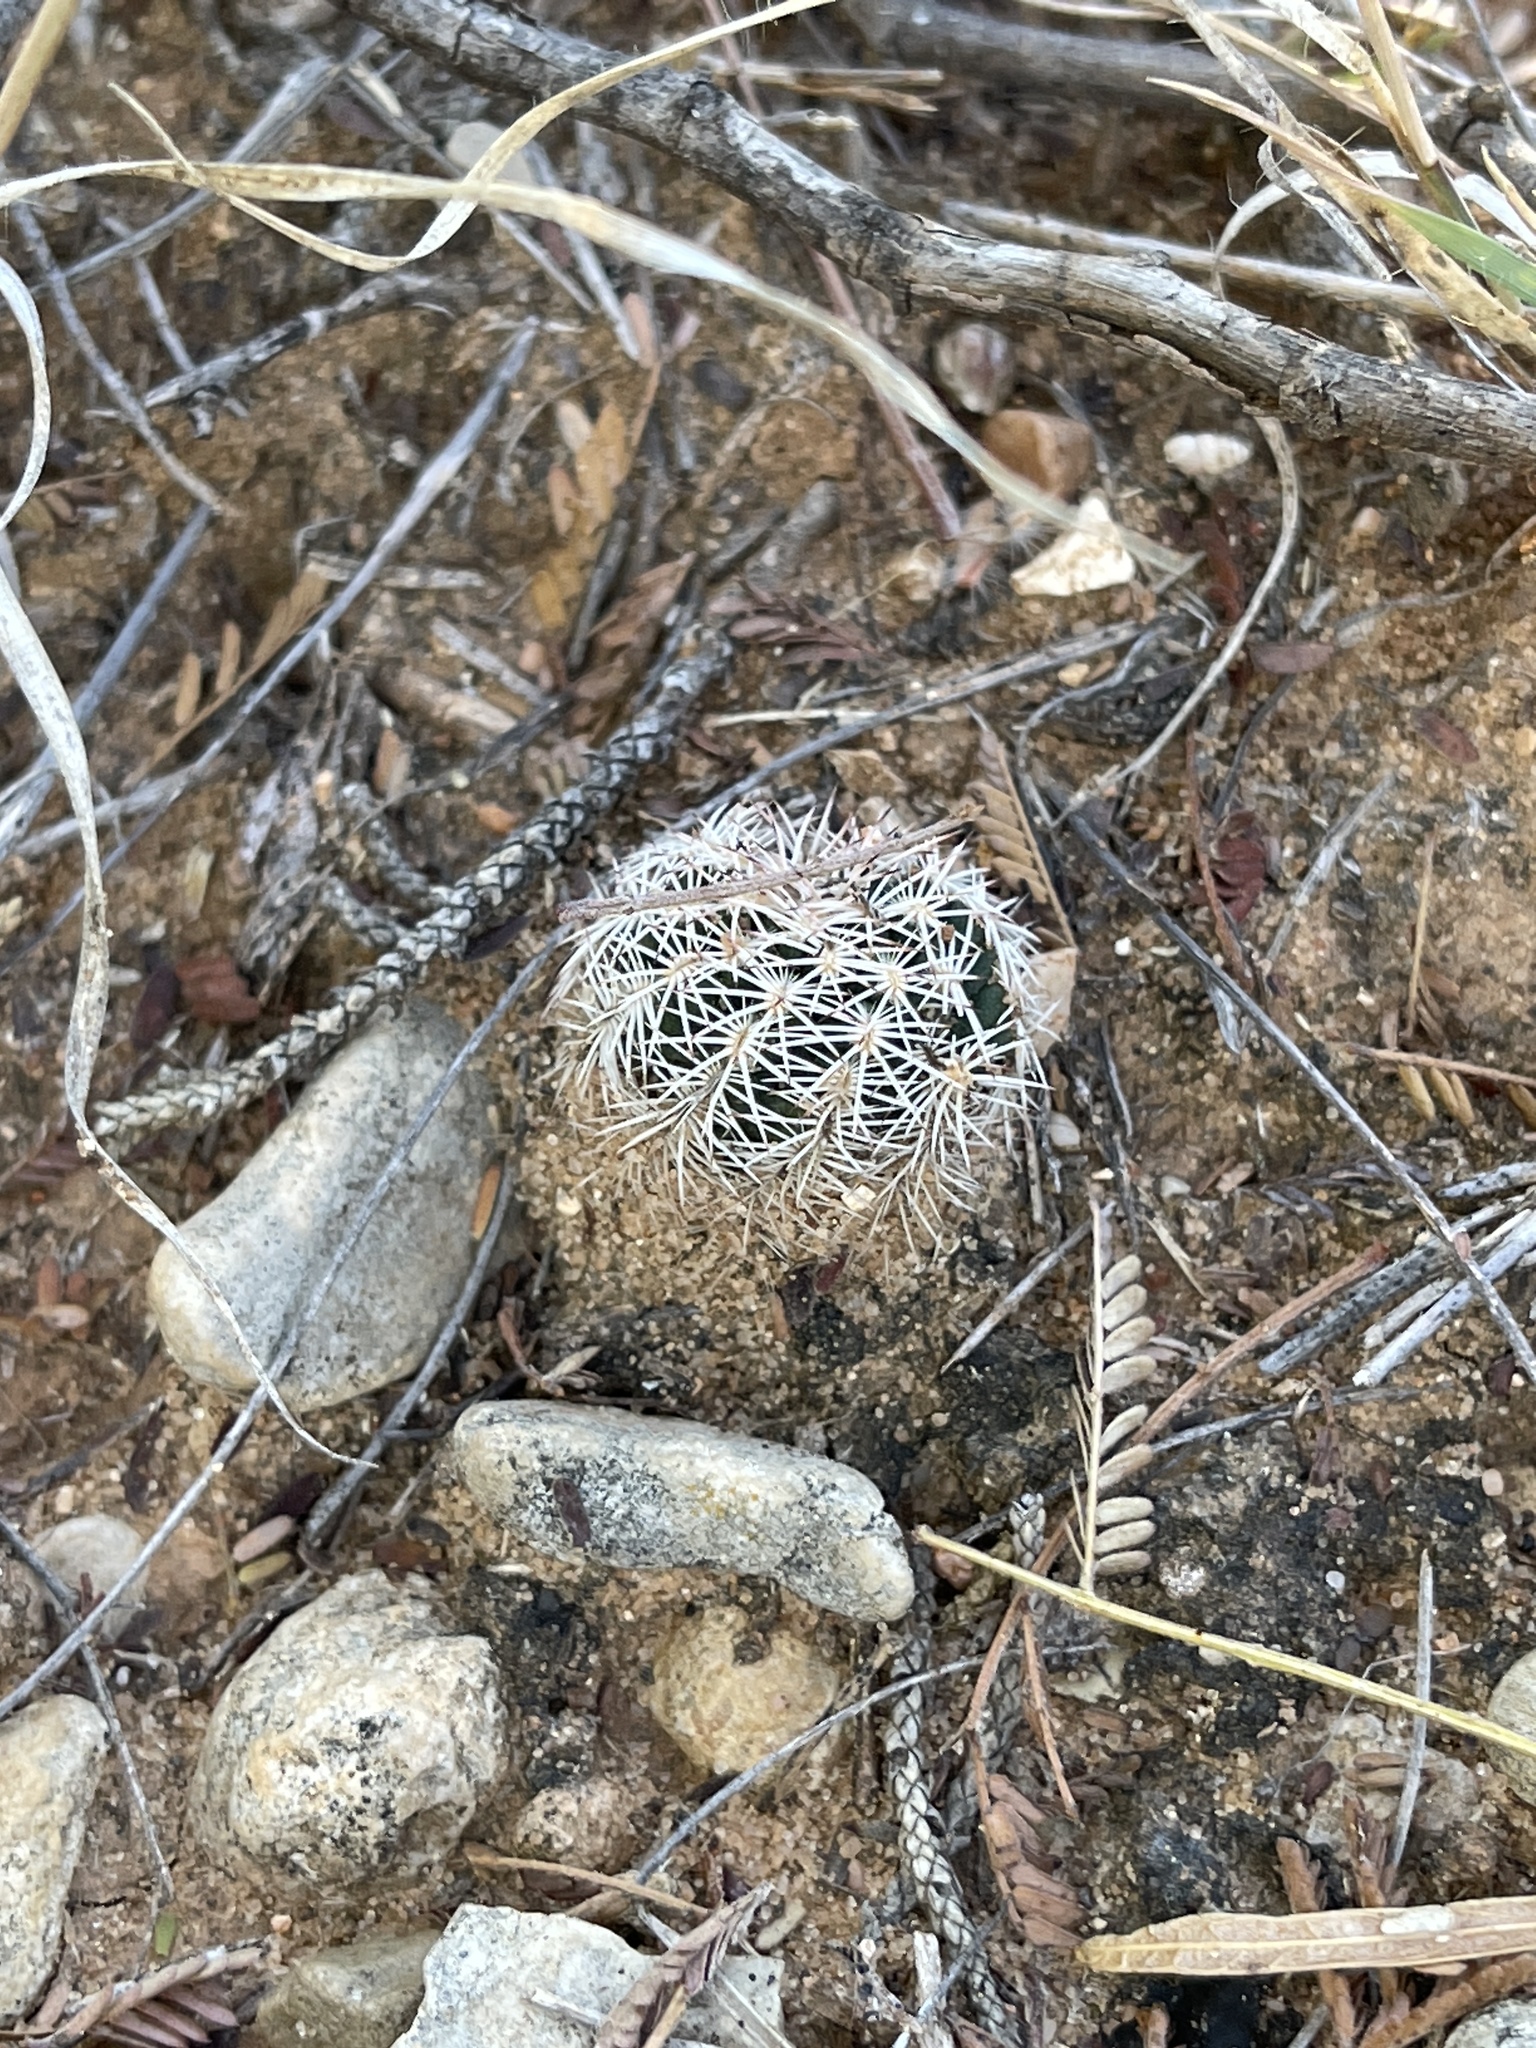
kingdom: Plantae
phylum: Tracheophyta
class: Magnoliopsida
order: Caryophyllales
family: Cactaceae
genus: Echinocereus
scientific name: Echinocereus reichenbachii
